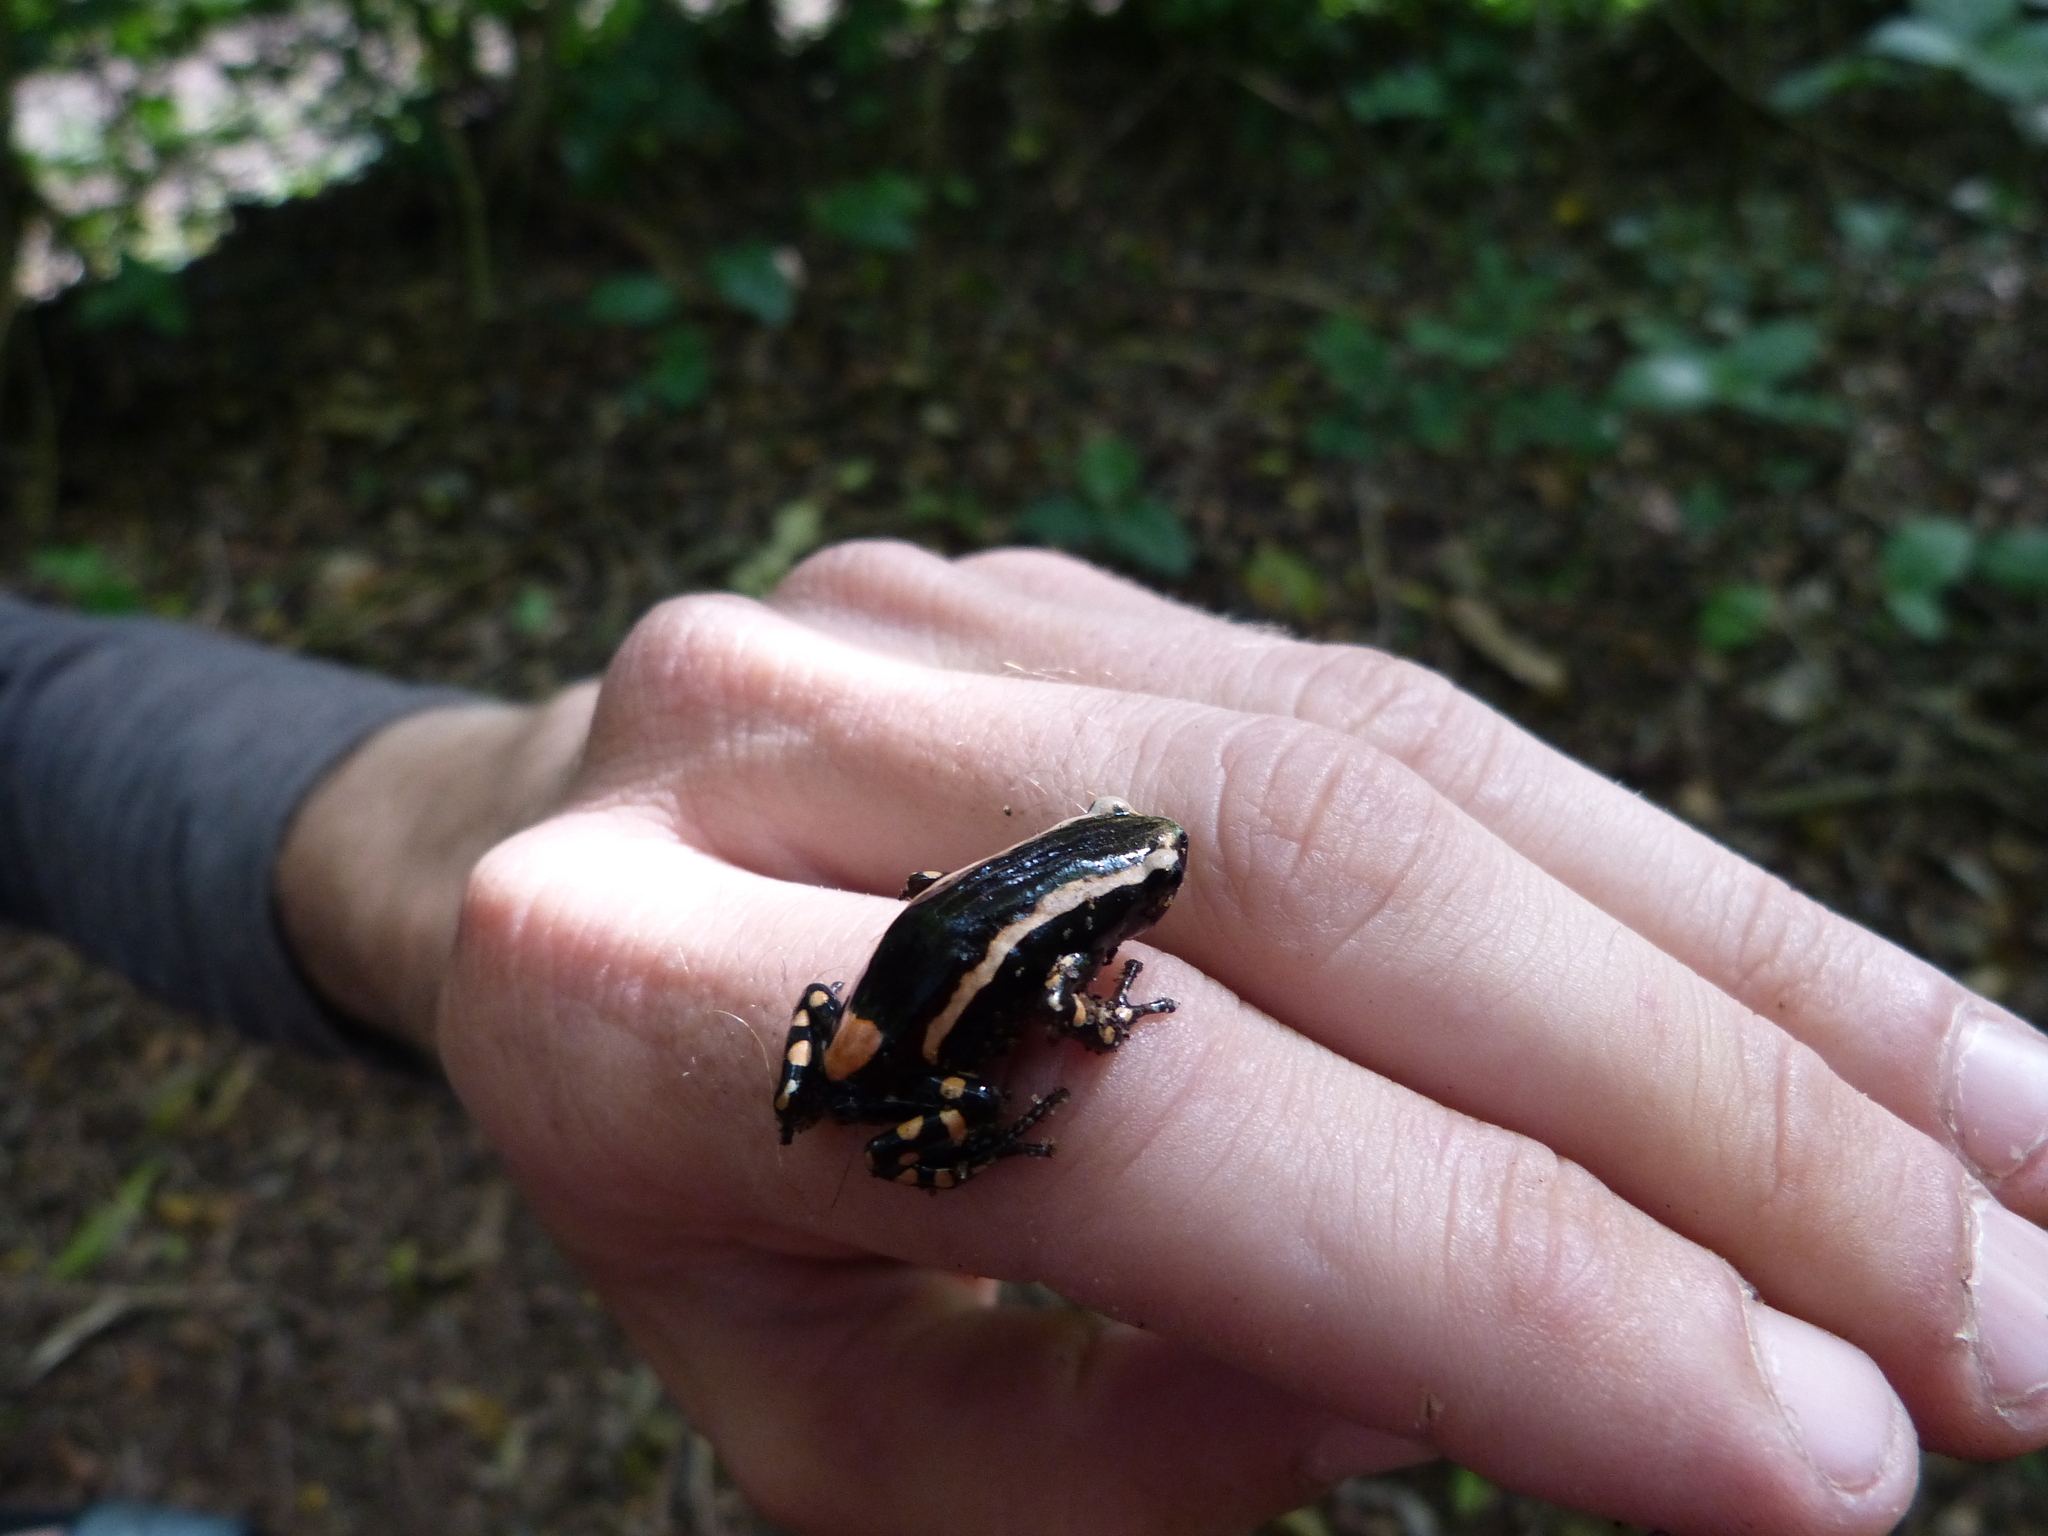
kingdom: Animalia
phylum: Chordata
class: Amphibia
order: Anura
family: Microhylidae
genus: Phrynomantis
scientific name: Phrynomantis bifasciatus
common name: Banded rubber frog
